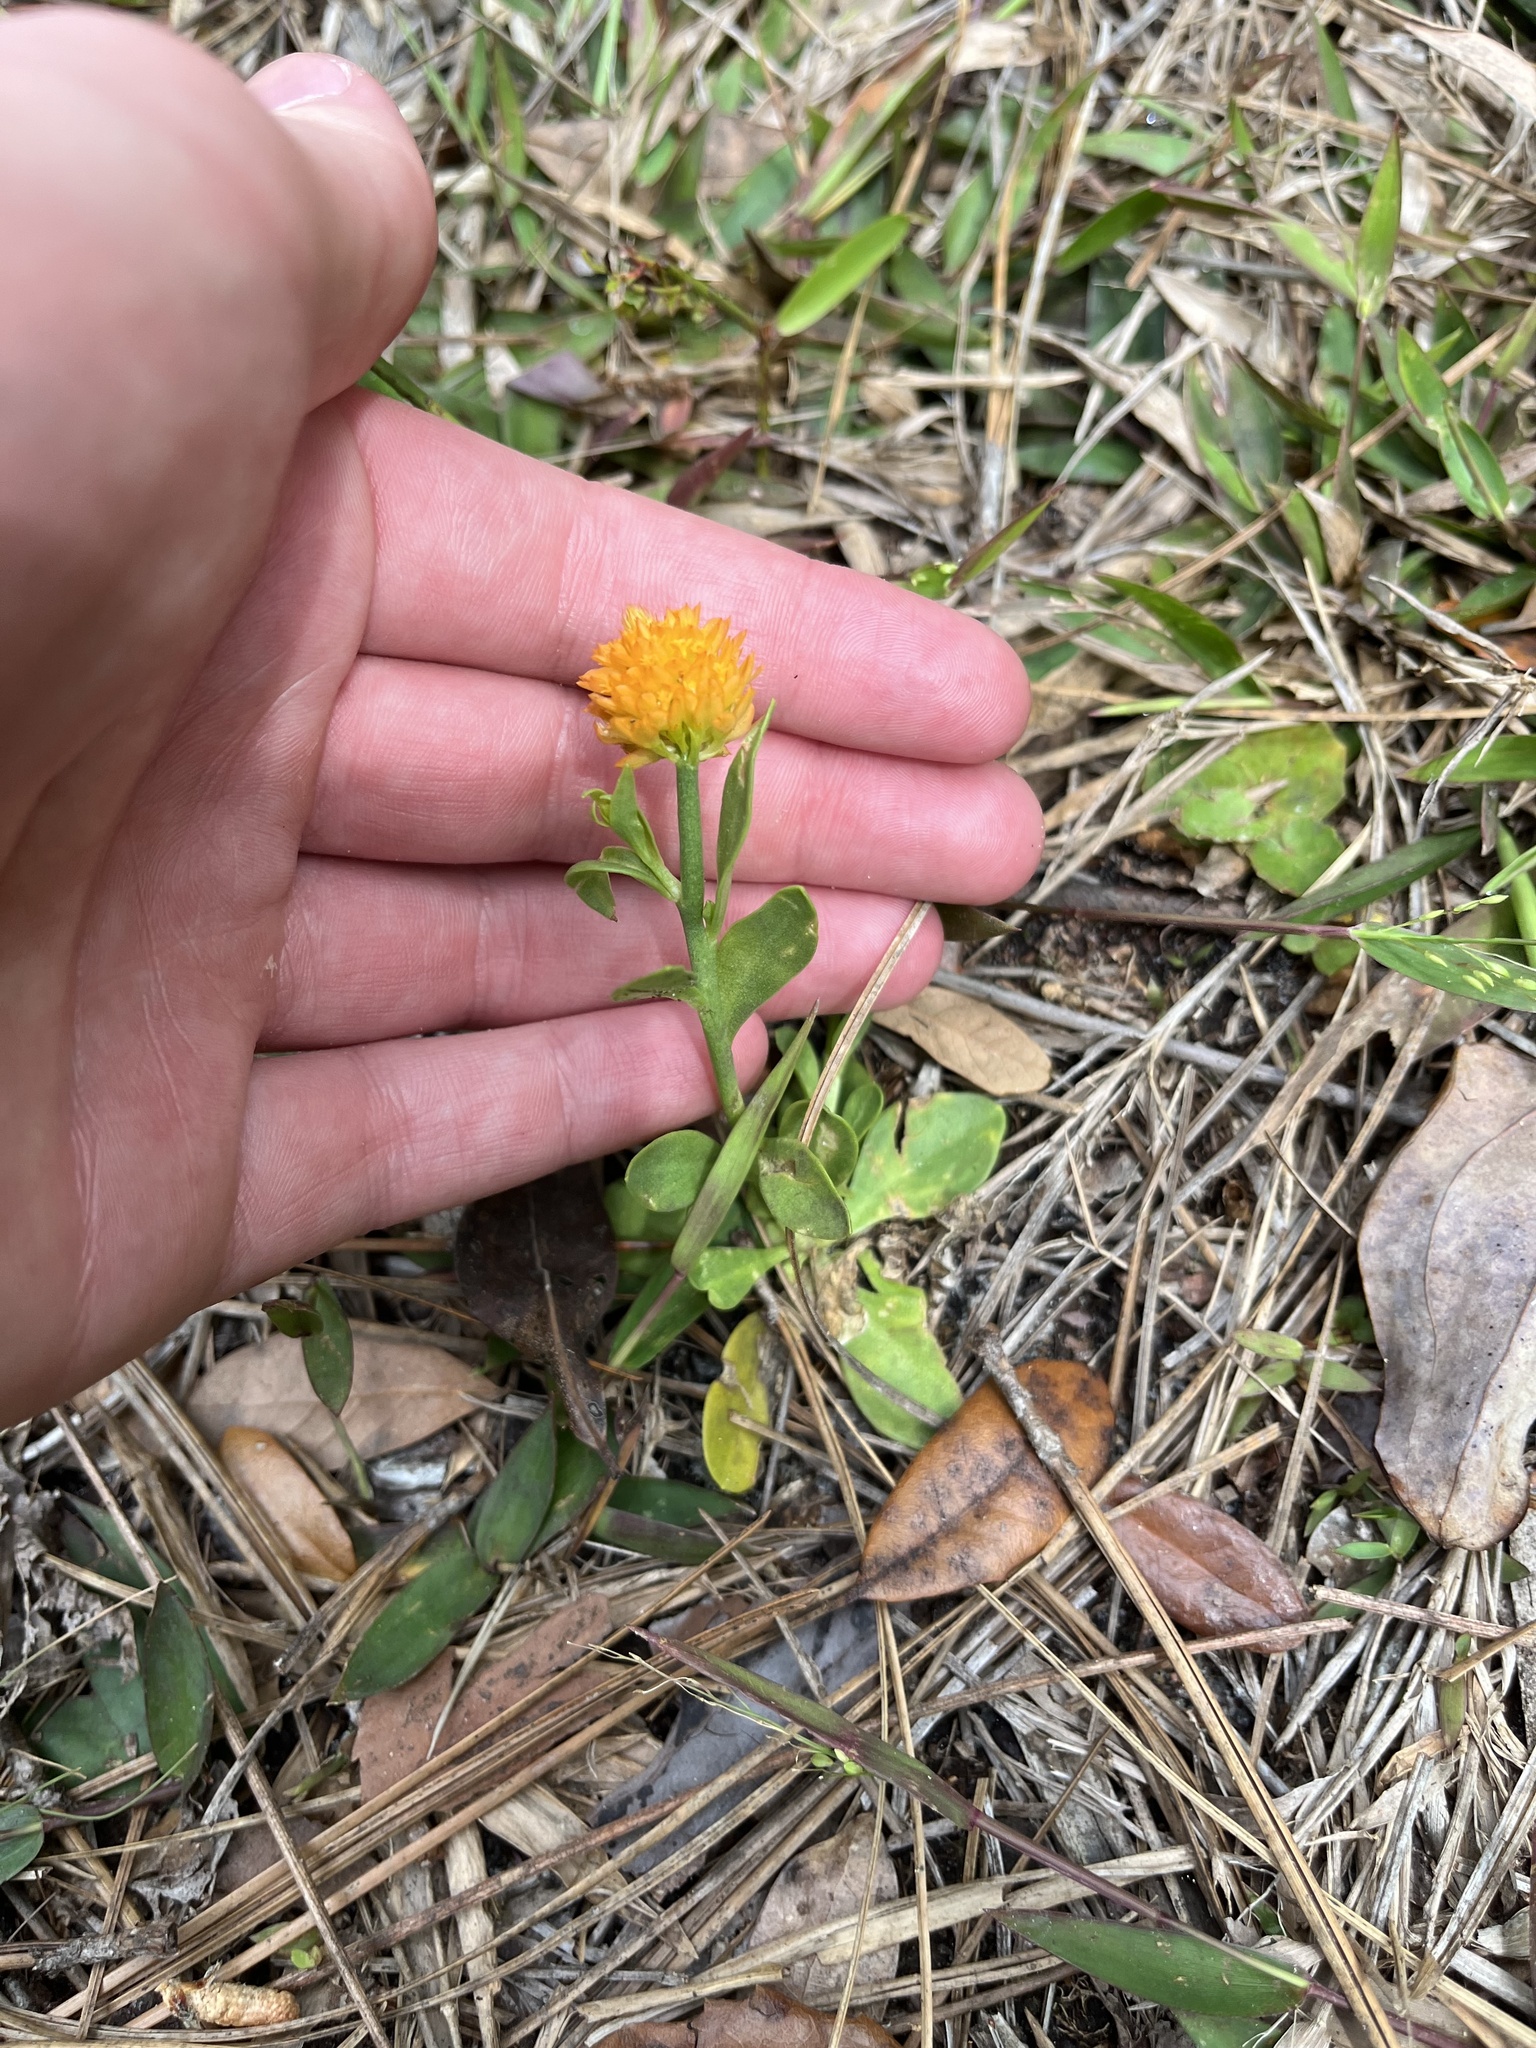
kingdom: Plantae
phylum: Tracheophyta
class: Magnoliopsida
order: Fabales
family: Polygalaceae
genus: Polygala
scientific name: Polygala lutea
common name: Orange milkwort
